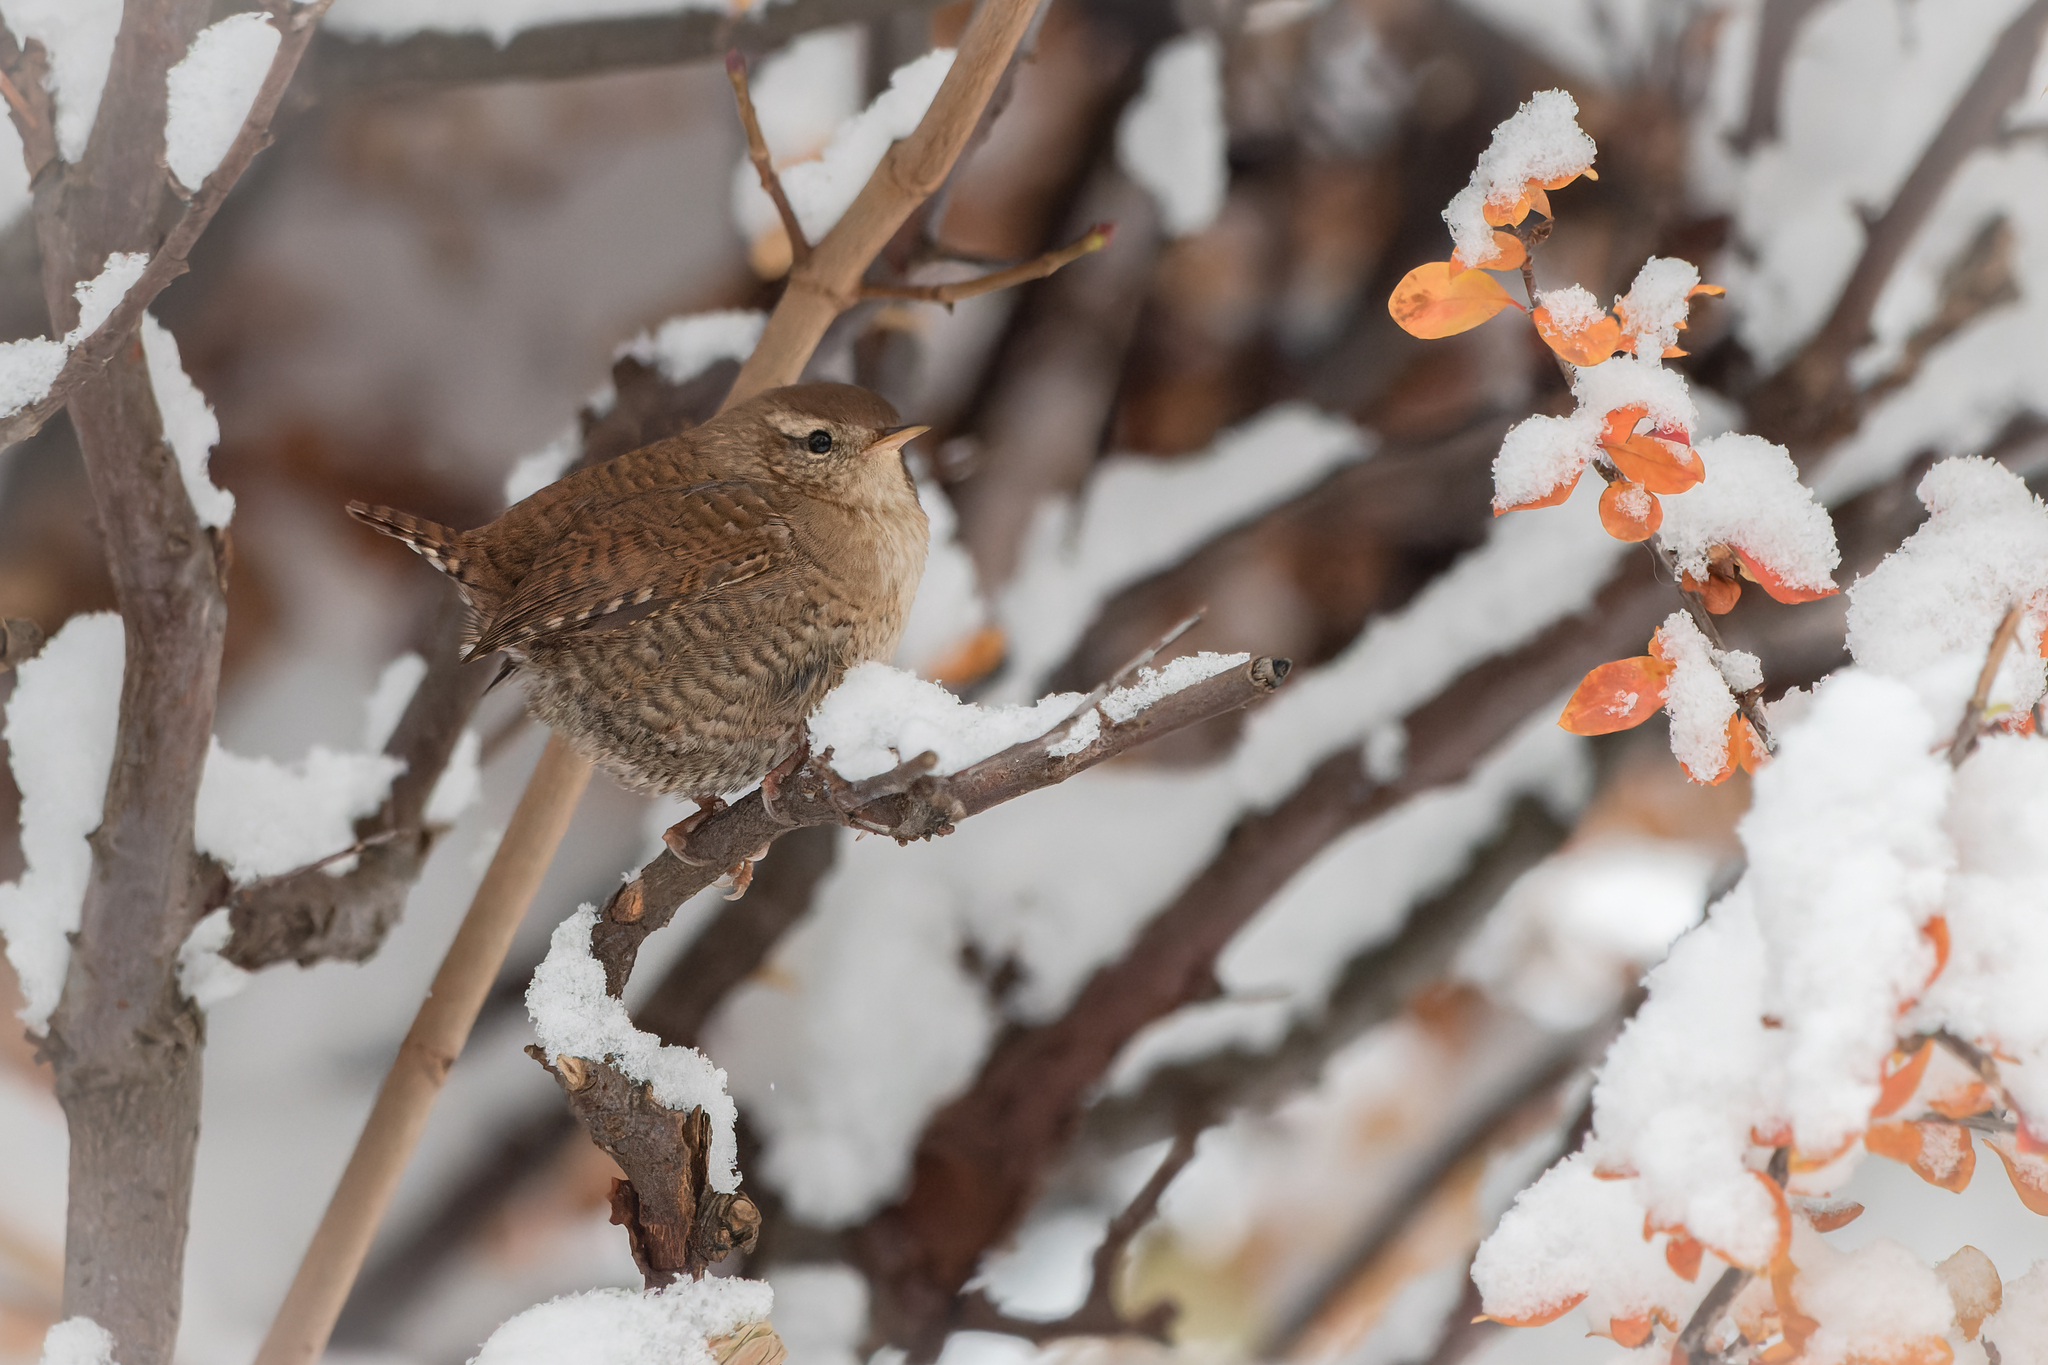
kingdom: Animalia
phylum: Chordata
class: Aves
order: Passeriformes
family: Troglodytidae
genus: Troglodytes
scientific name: Troglodytes troglodytes
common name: Eurasian wren
